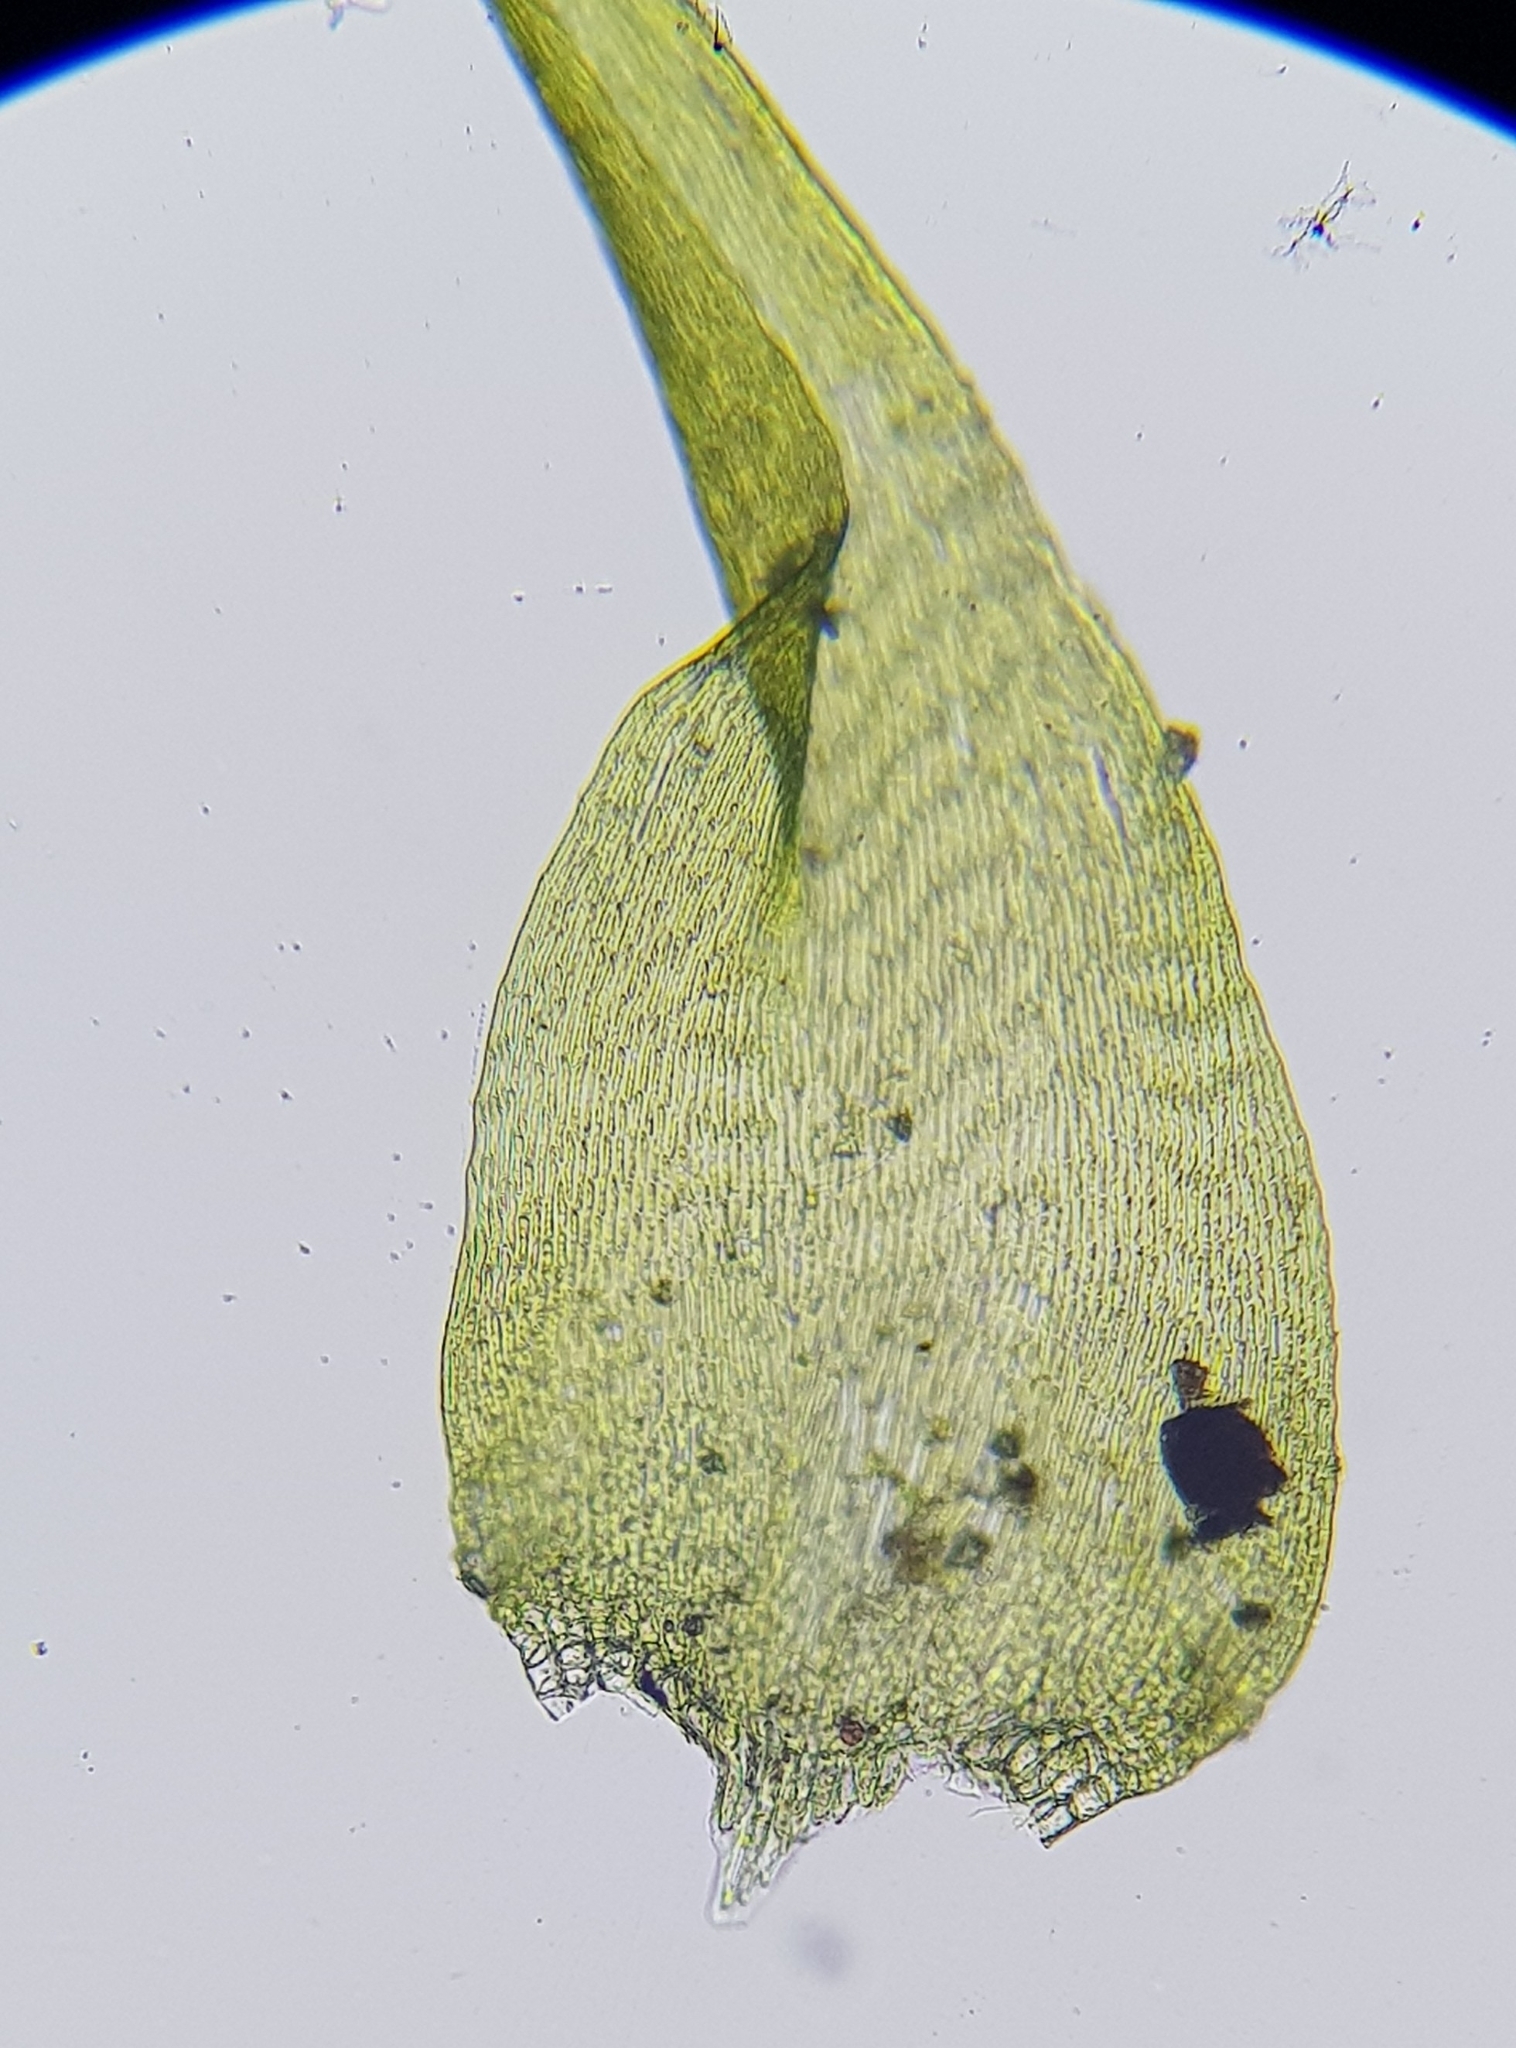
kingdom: Plantae
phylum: Bryophyta
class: Bryopsida
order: Hypnales
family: Amblystegiaceae
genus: Campylium
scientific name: Campylium protensum
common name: Dull starry fen moss
